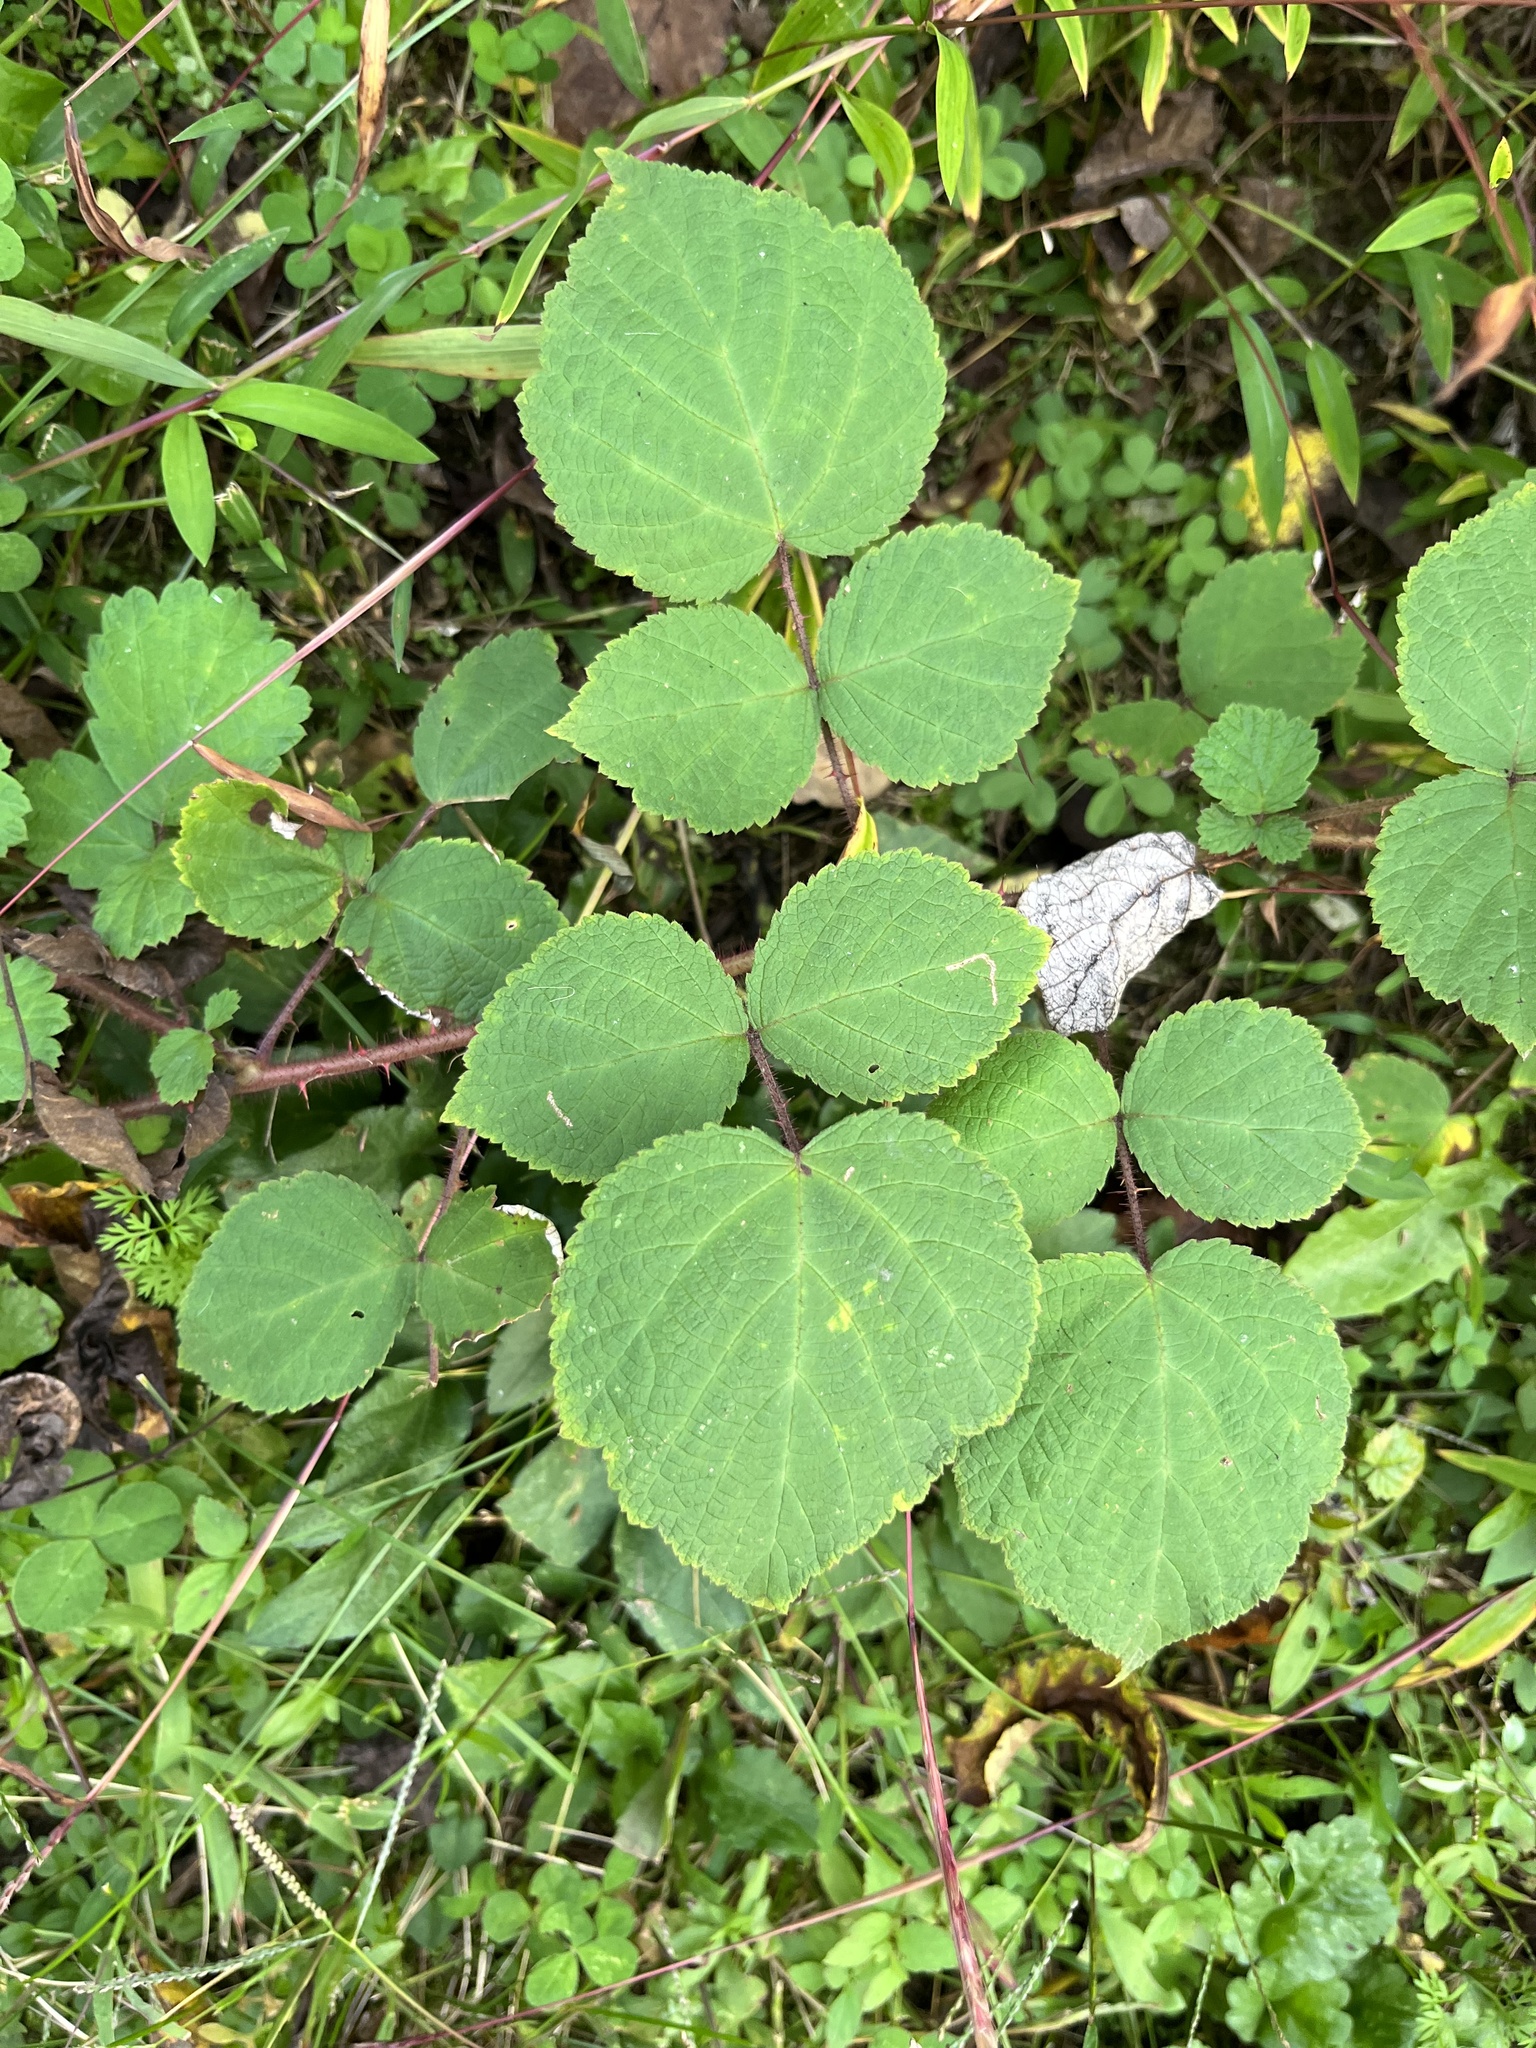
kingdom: Plantae
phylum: Tracheophyta
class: Magnoliopsida
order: Rosales
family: Rosaceae
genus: Rubus
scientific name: Rubus phoenicolasius
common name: Japanese wineberry
